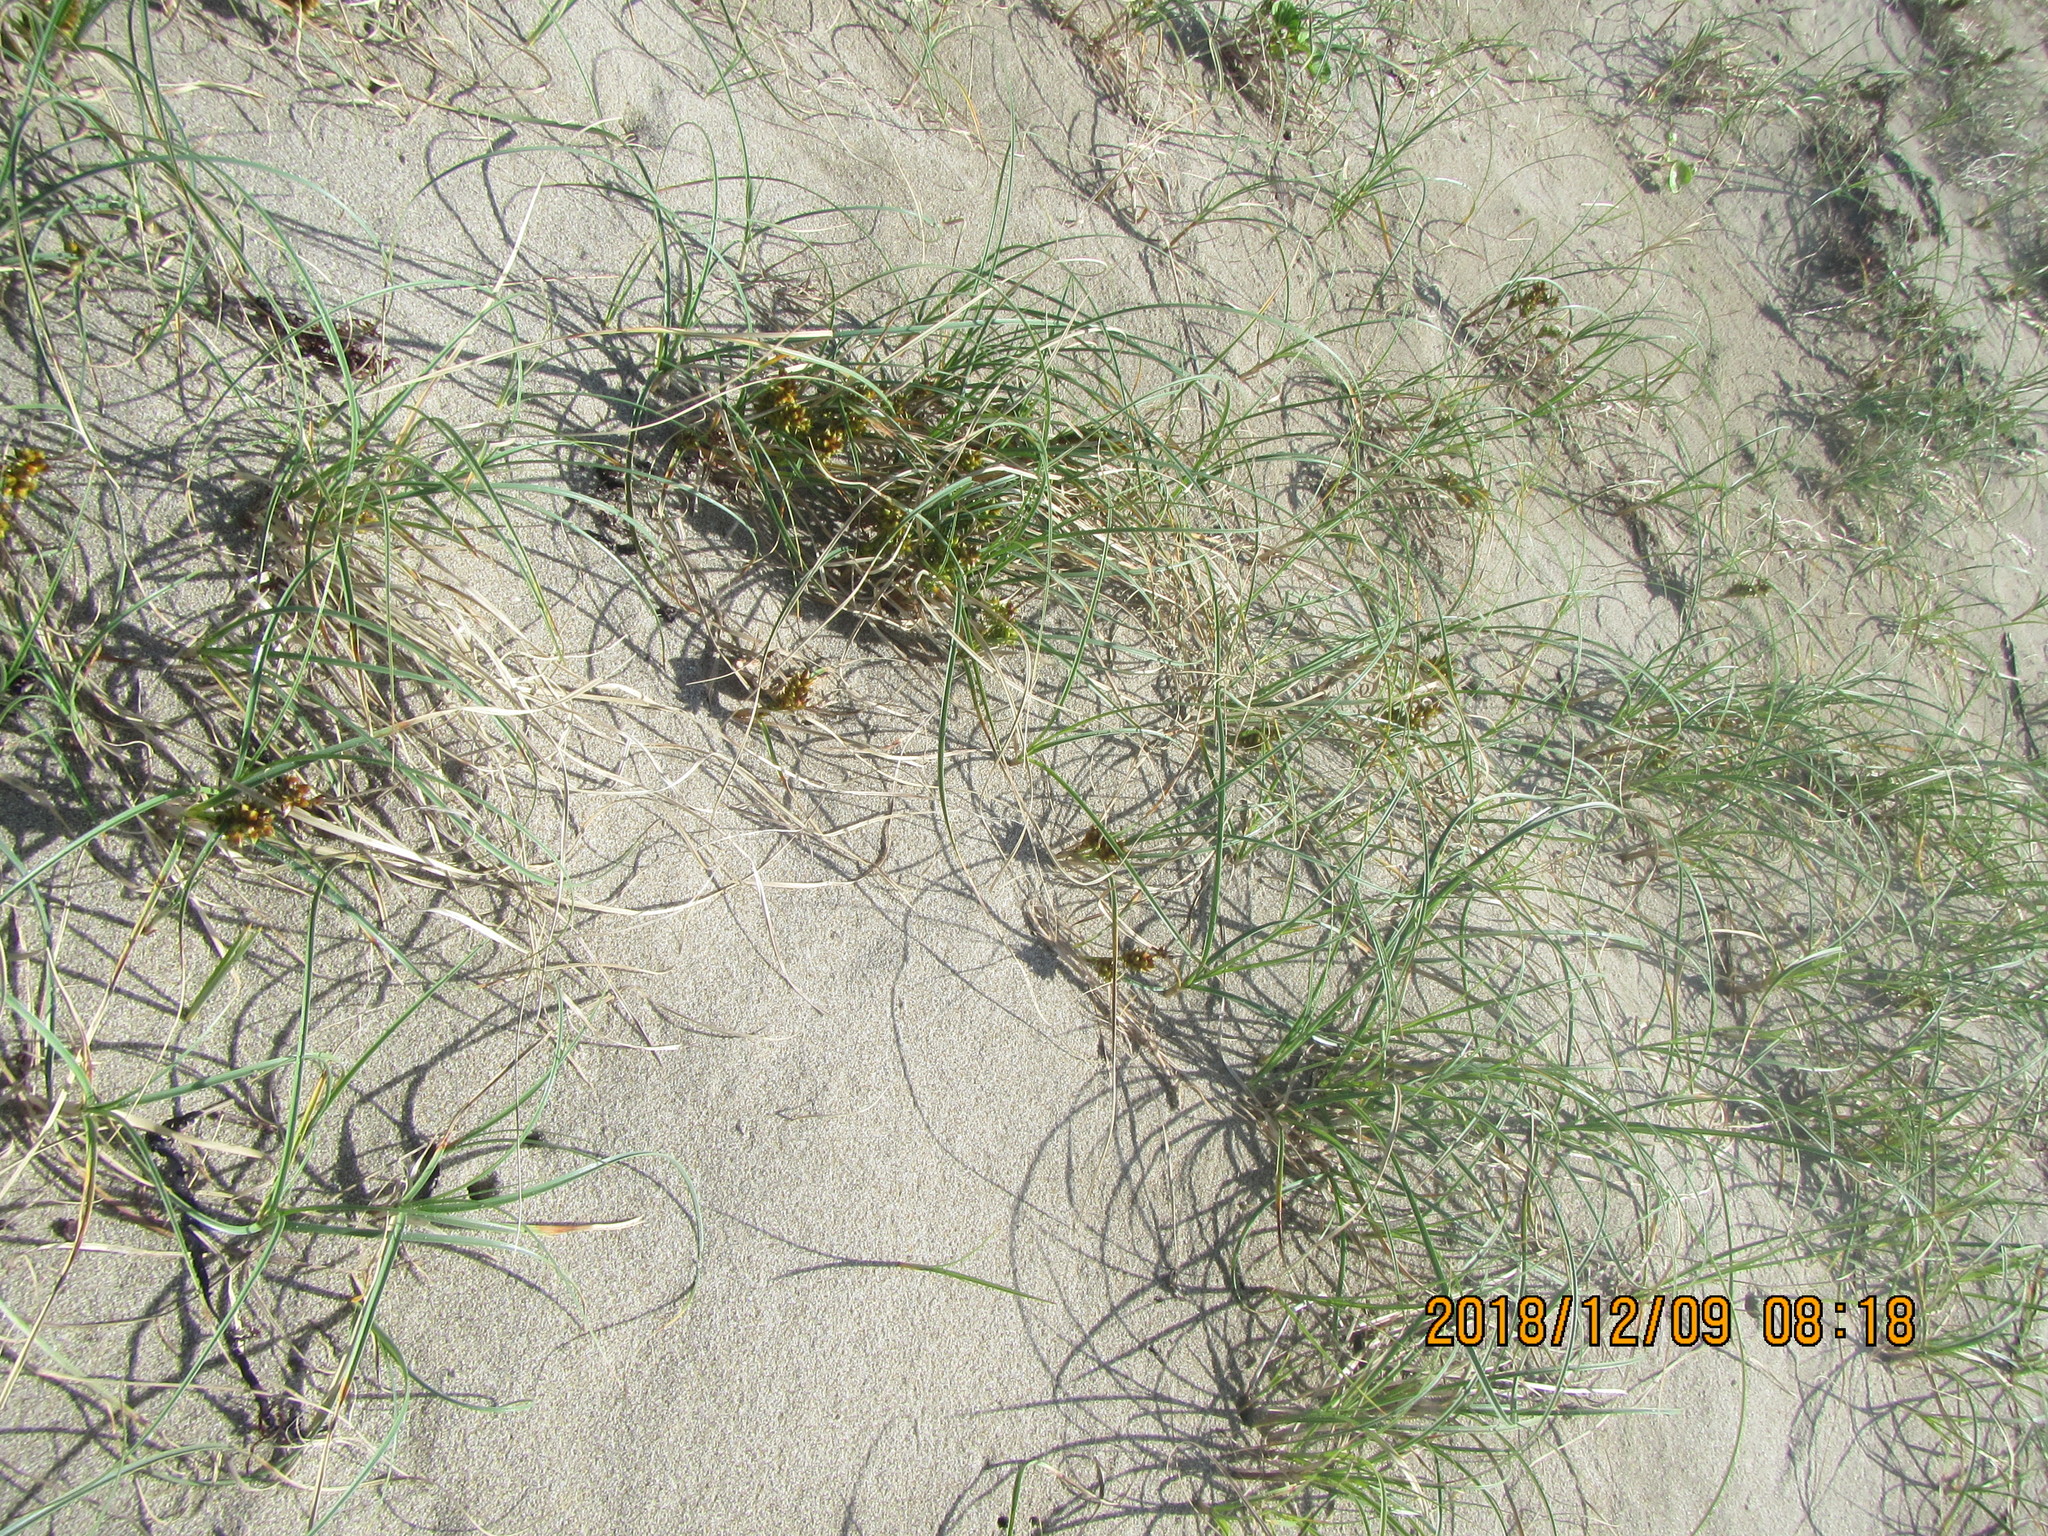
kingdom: Plantae
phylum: Tracheophyta
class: Liliopsida
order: Poales
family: Cyperaceae
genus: Carex
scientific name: Carex pumila
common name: Dwarf sedge
